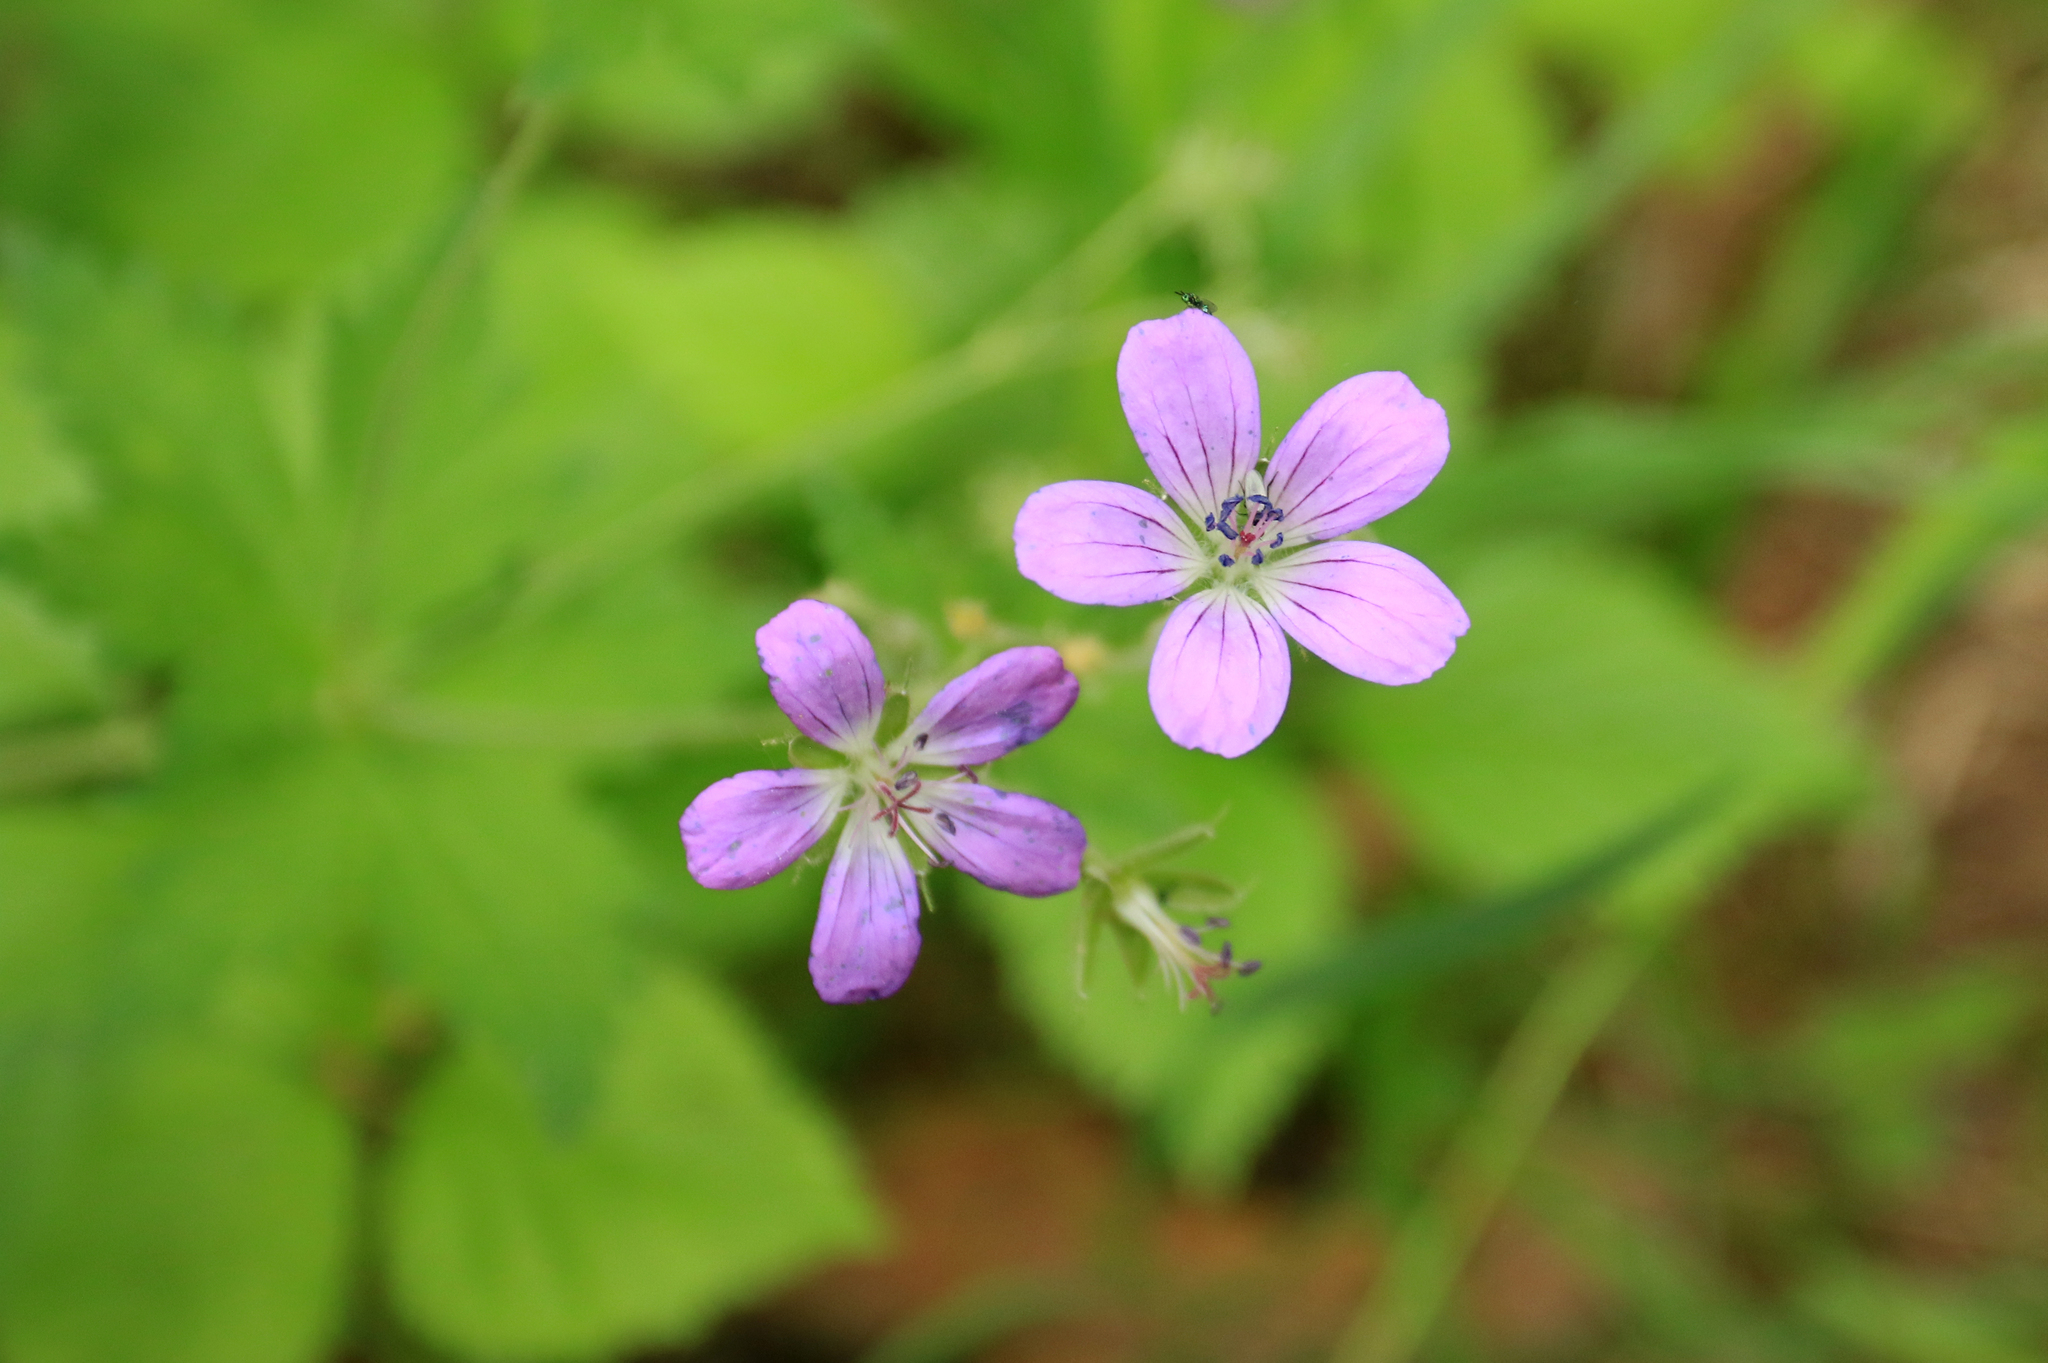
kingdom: Plantae
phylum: Tracheophyta
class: Magnoliopsida
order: Geraniales
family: Geraniaceae
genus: Geranium
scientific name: Geranium sylvaticum
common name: Wood crane's-bill
